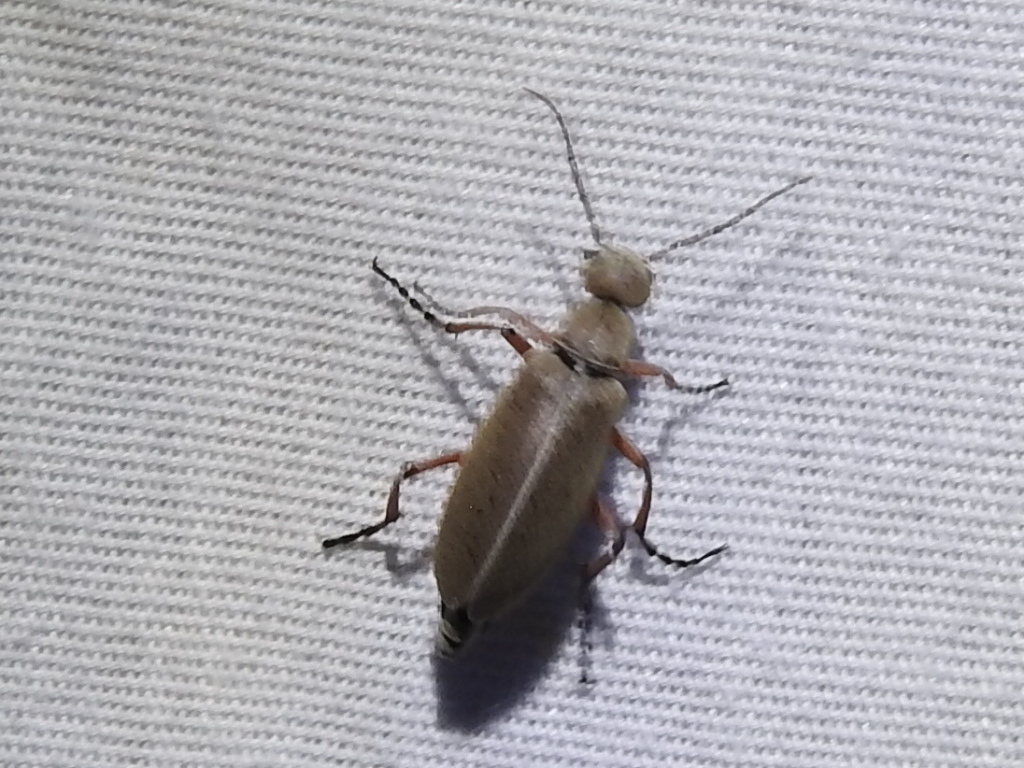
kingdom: Animalia
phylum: Arthropoda
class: Insecta
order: Coleoptera
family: Meloidae
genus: Epicauta
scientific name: Epicauta nigritarsis
